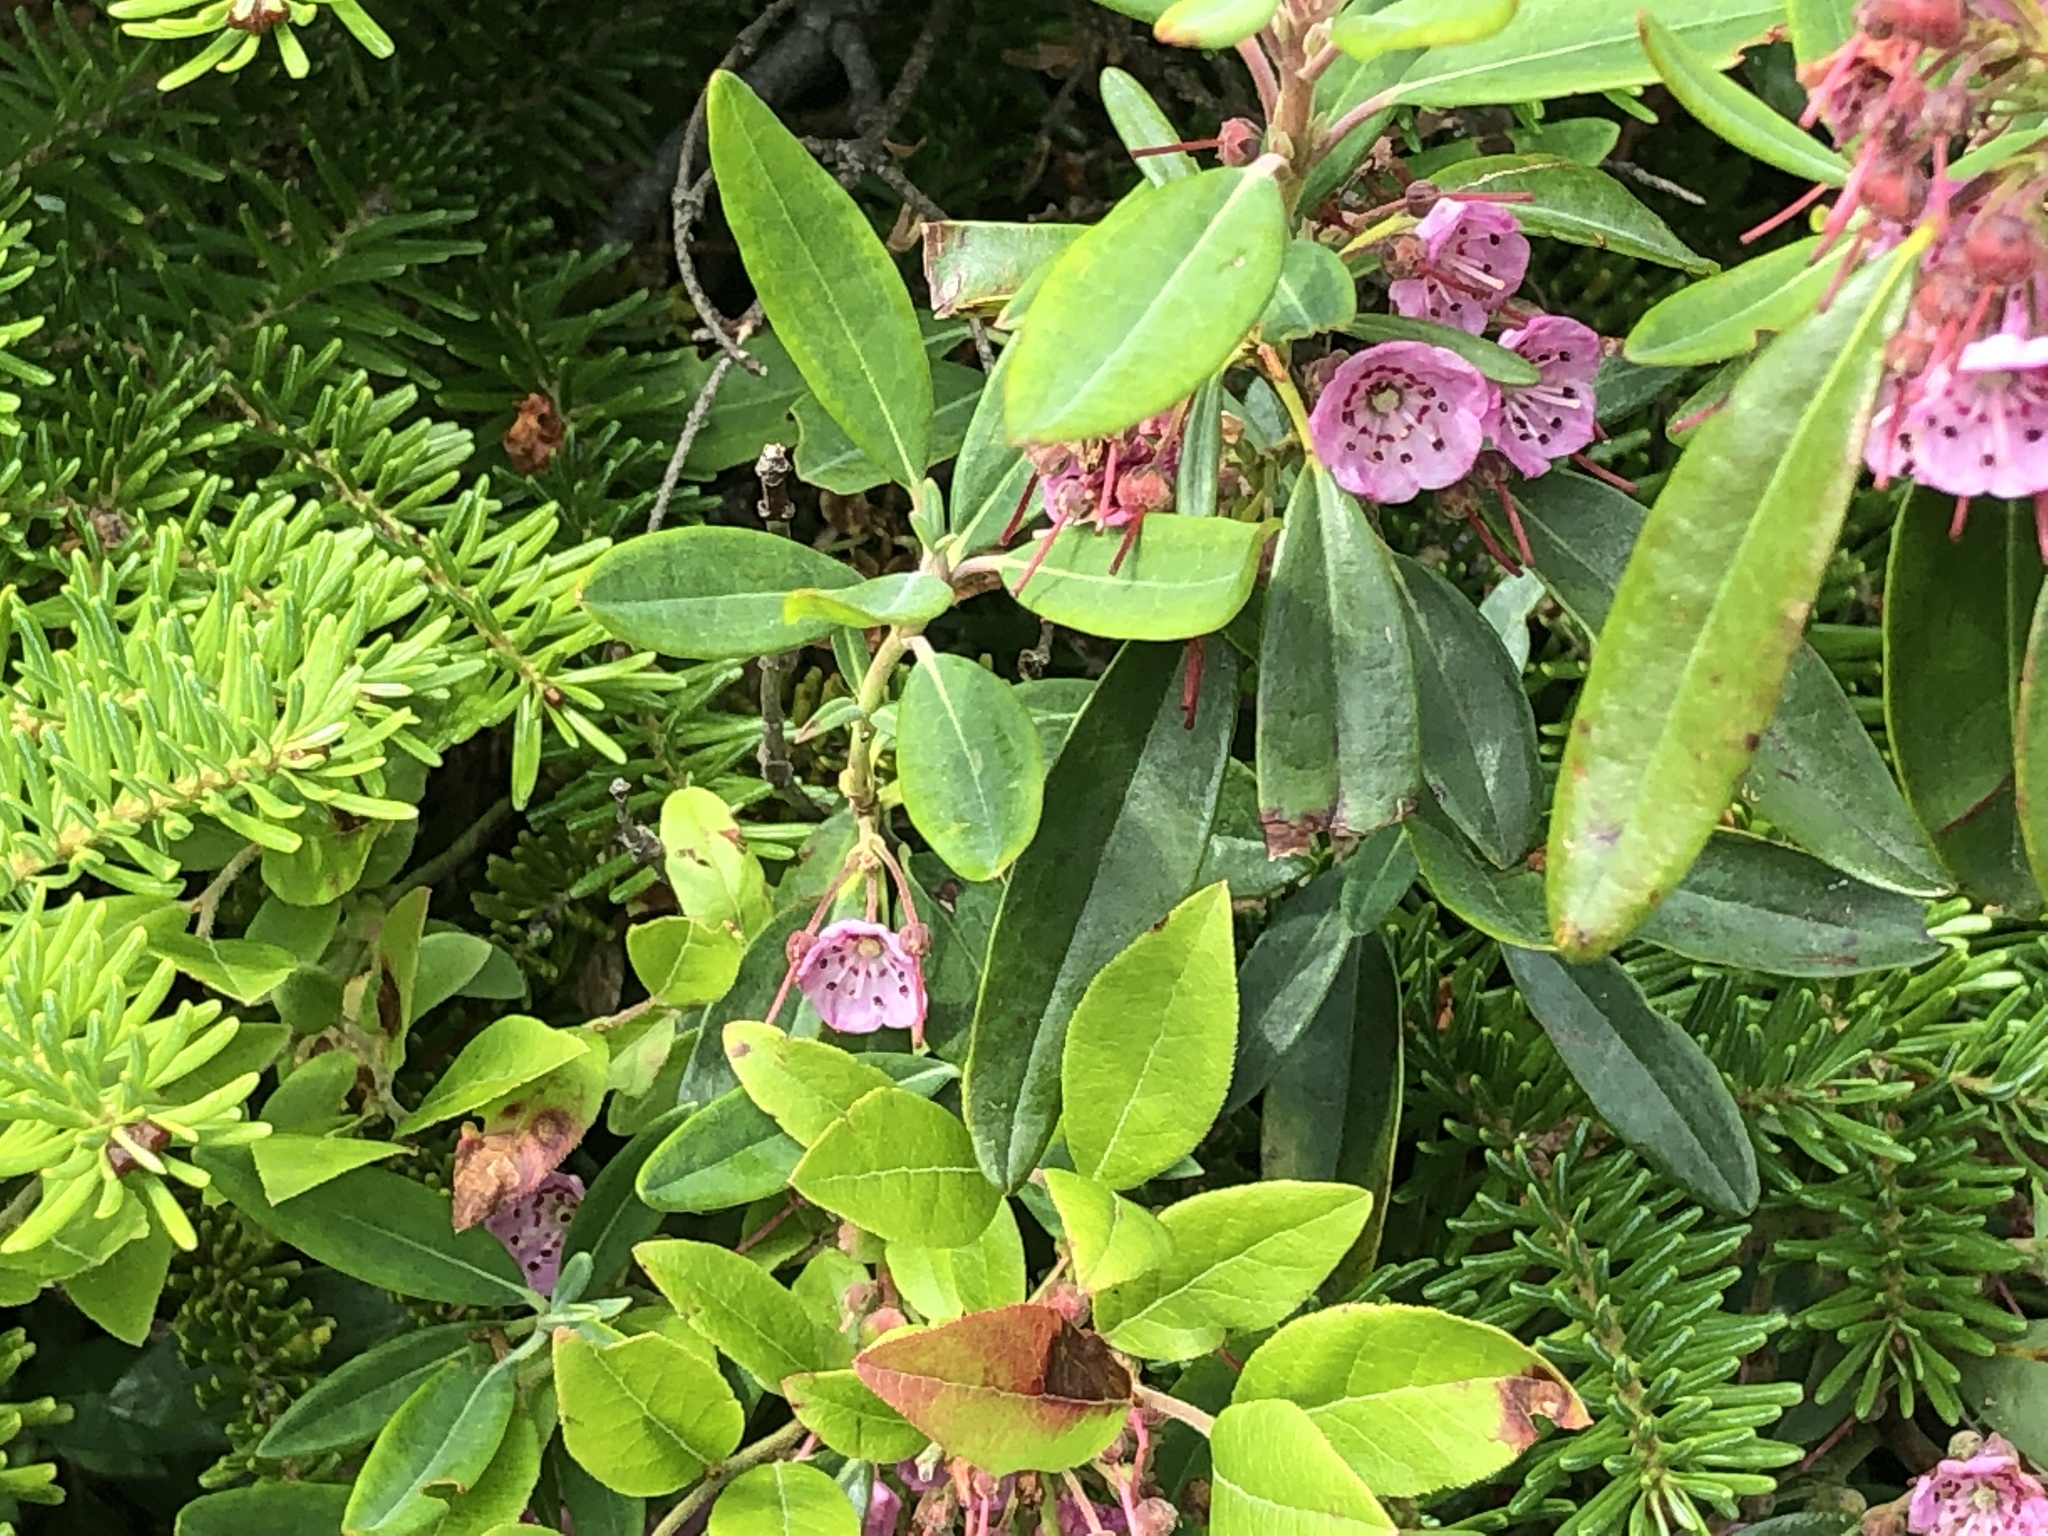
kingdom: Plantae
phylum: Tracheophyta
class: Magnoliopsida
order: Ericales
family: Ericaceae
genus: Kalmia
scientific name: Kalmia angustifolia
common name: Sheep-laurel
